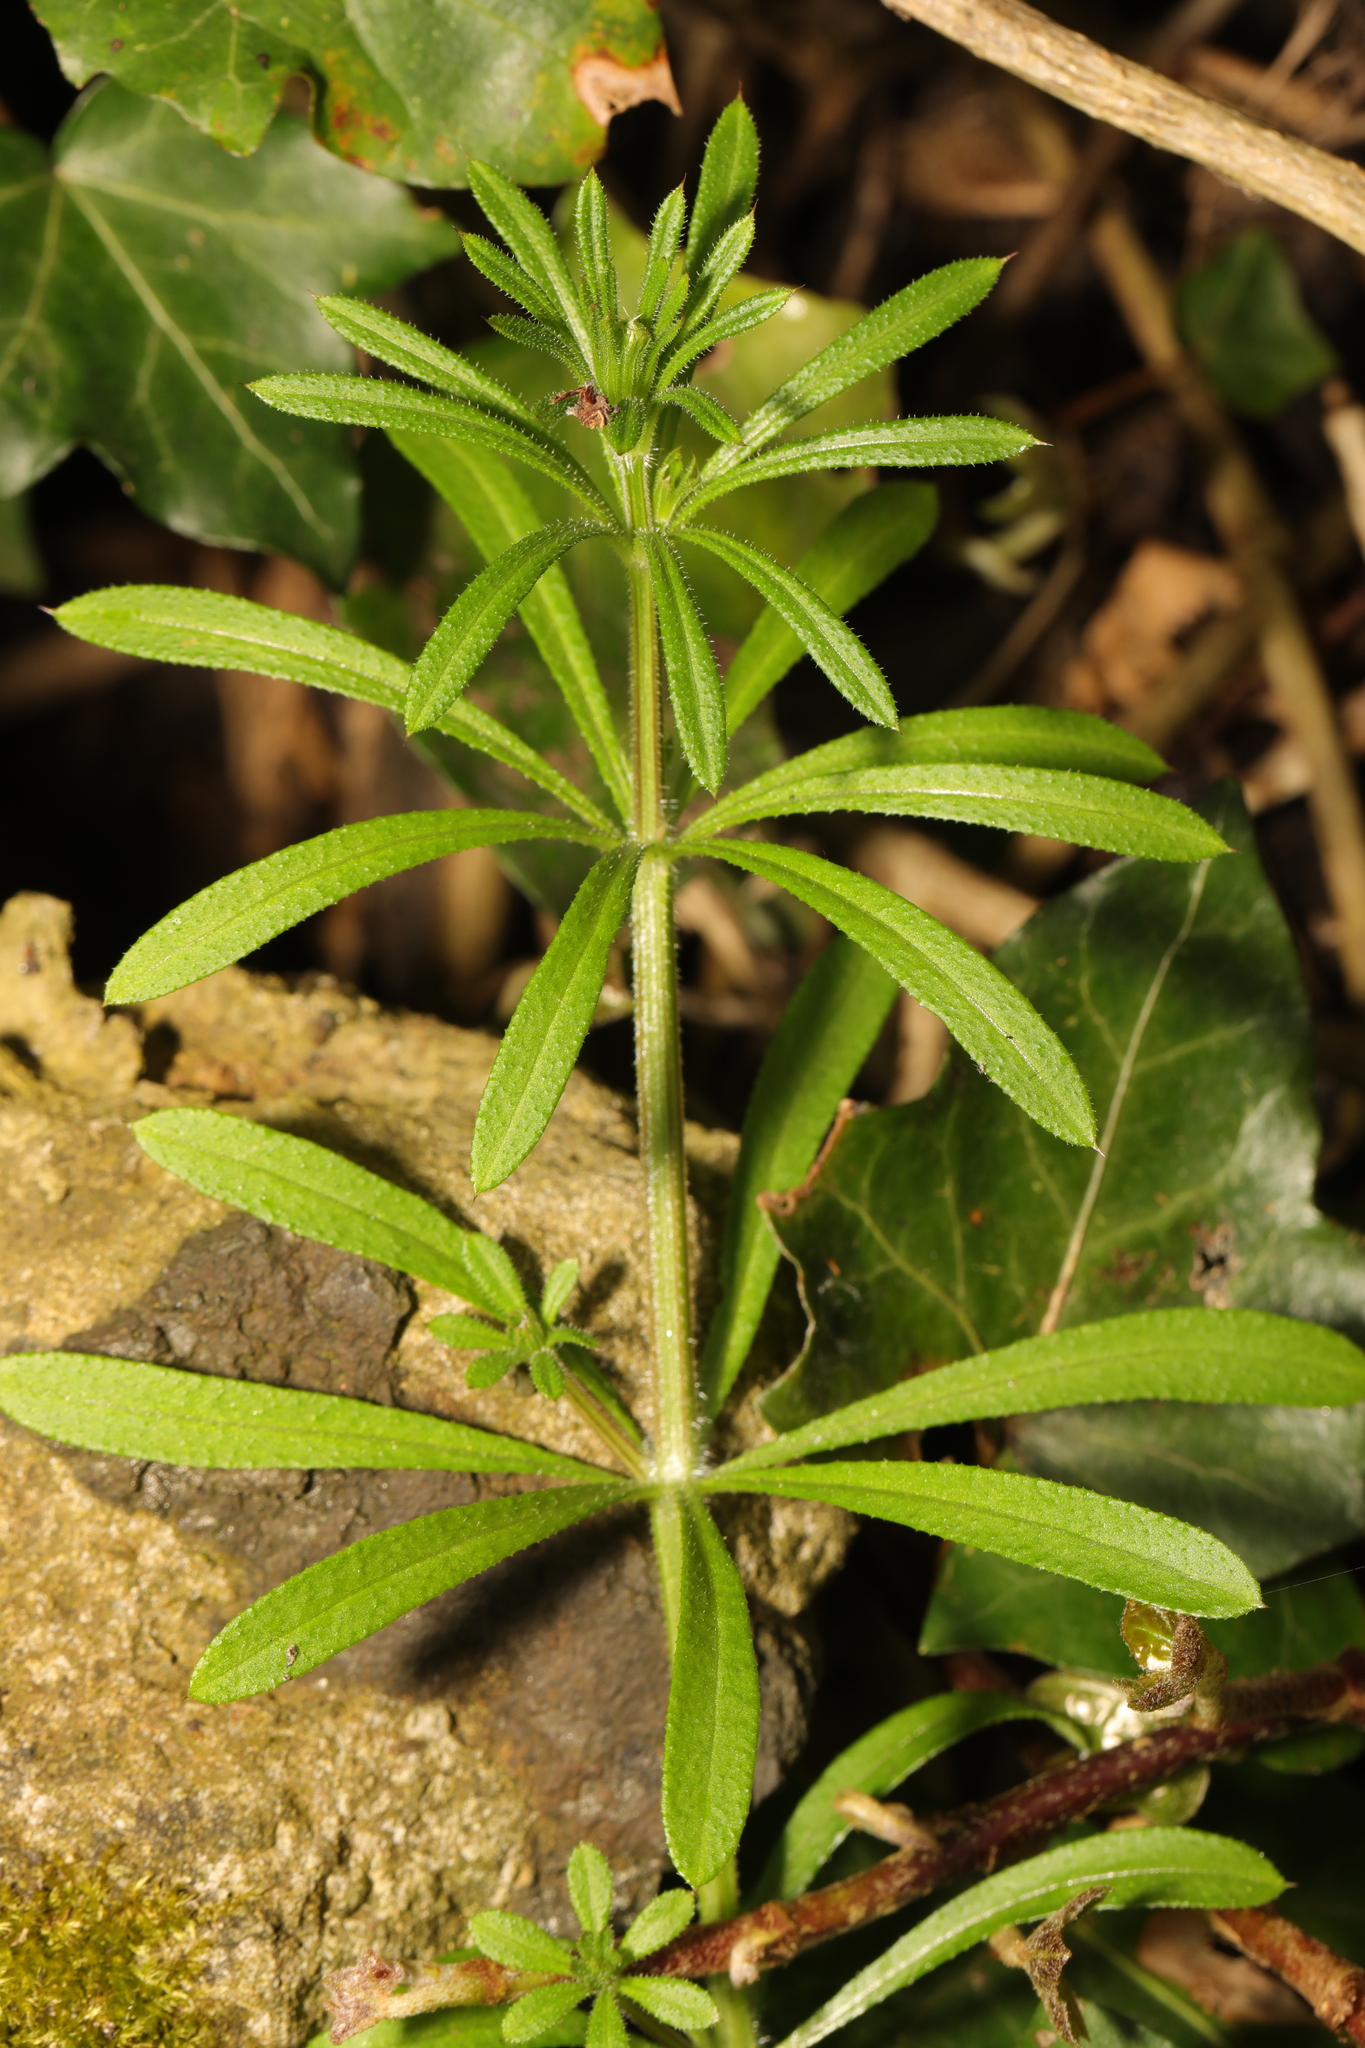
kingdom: Plantae
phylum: Tracheophyta
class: Magnoliopsida
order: Gentianales
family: Rubiaceae
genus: Galium
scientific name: Galium aparine
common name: Cleavers
